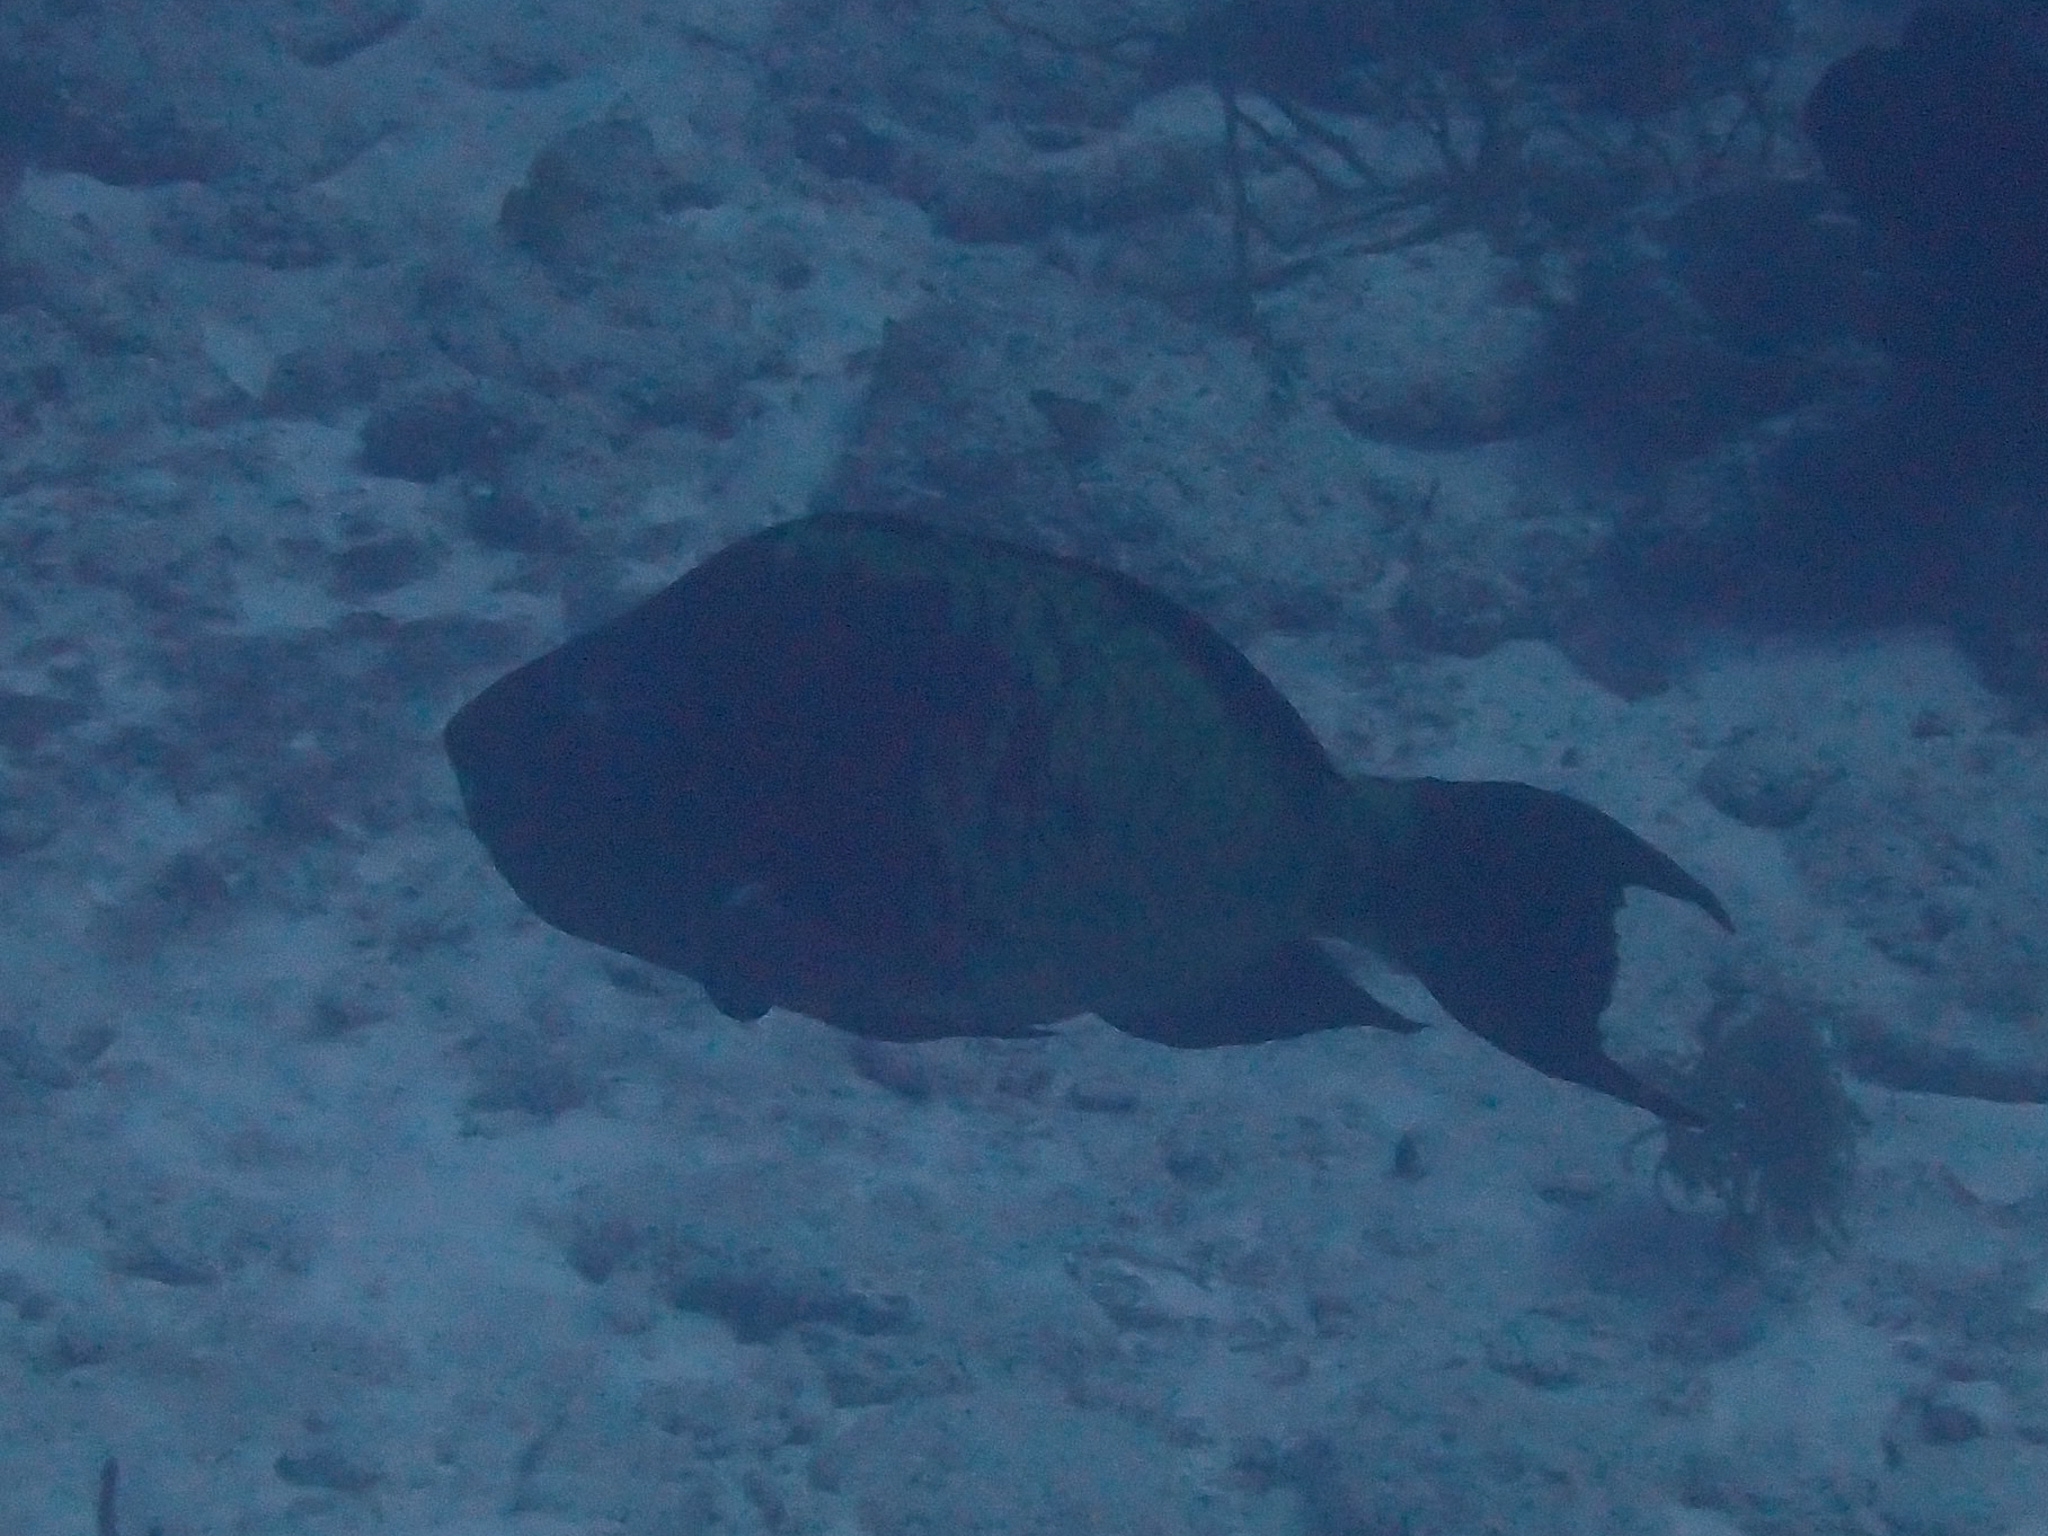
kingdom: Animalia
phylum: Chordata
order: Perciformes
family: Scaridae
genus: Scarus
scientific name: Scarus guacamaia
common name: Rainbow parrotfish
